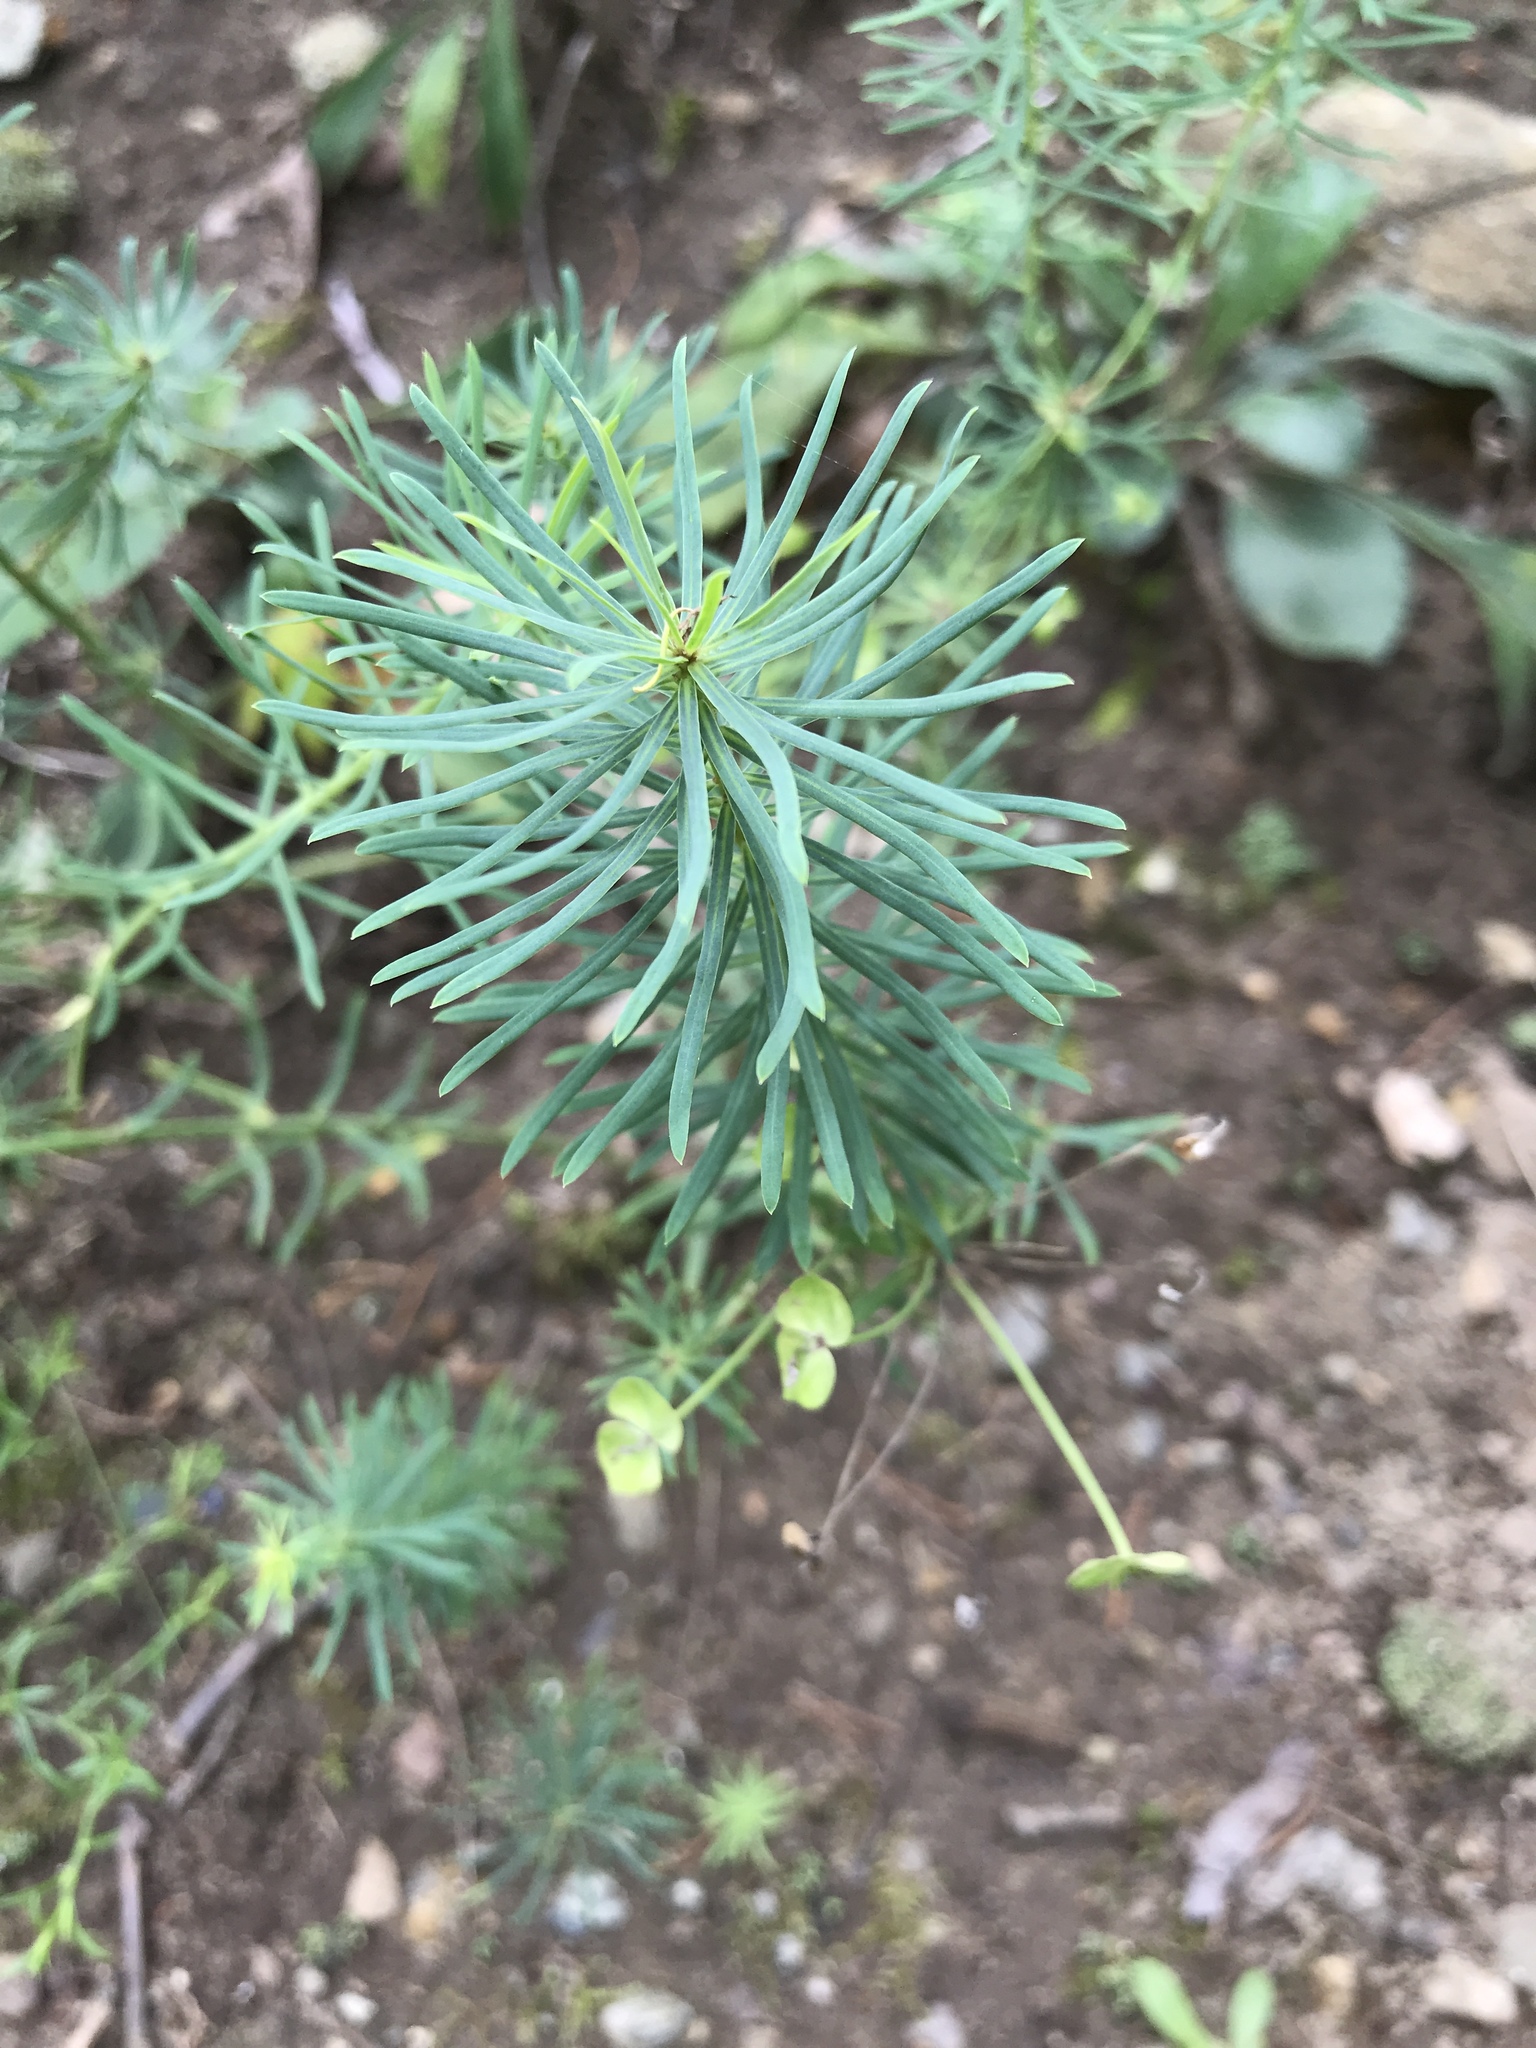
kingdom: Plantae
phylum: Tracheophyta
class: Magnoliopsida
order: Malpighiales
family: Euphorbiaceae
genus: Euphorbia
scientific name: Euphorbia cyparissias
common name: Cypress spurge
